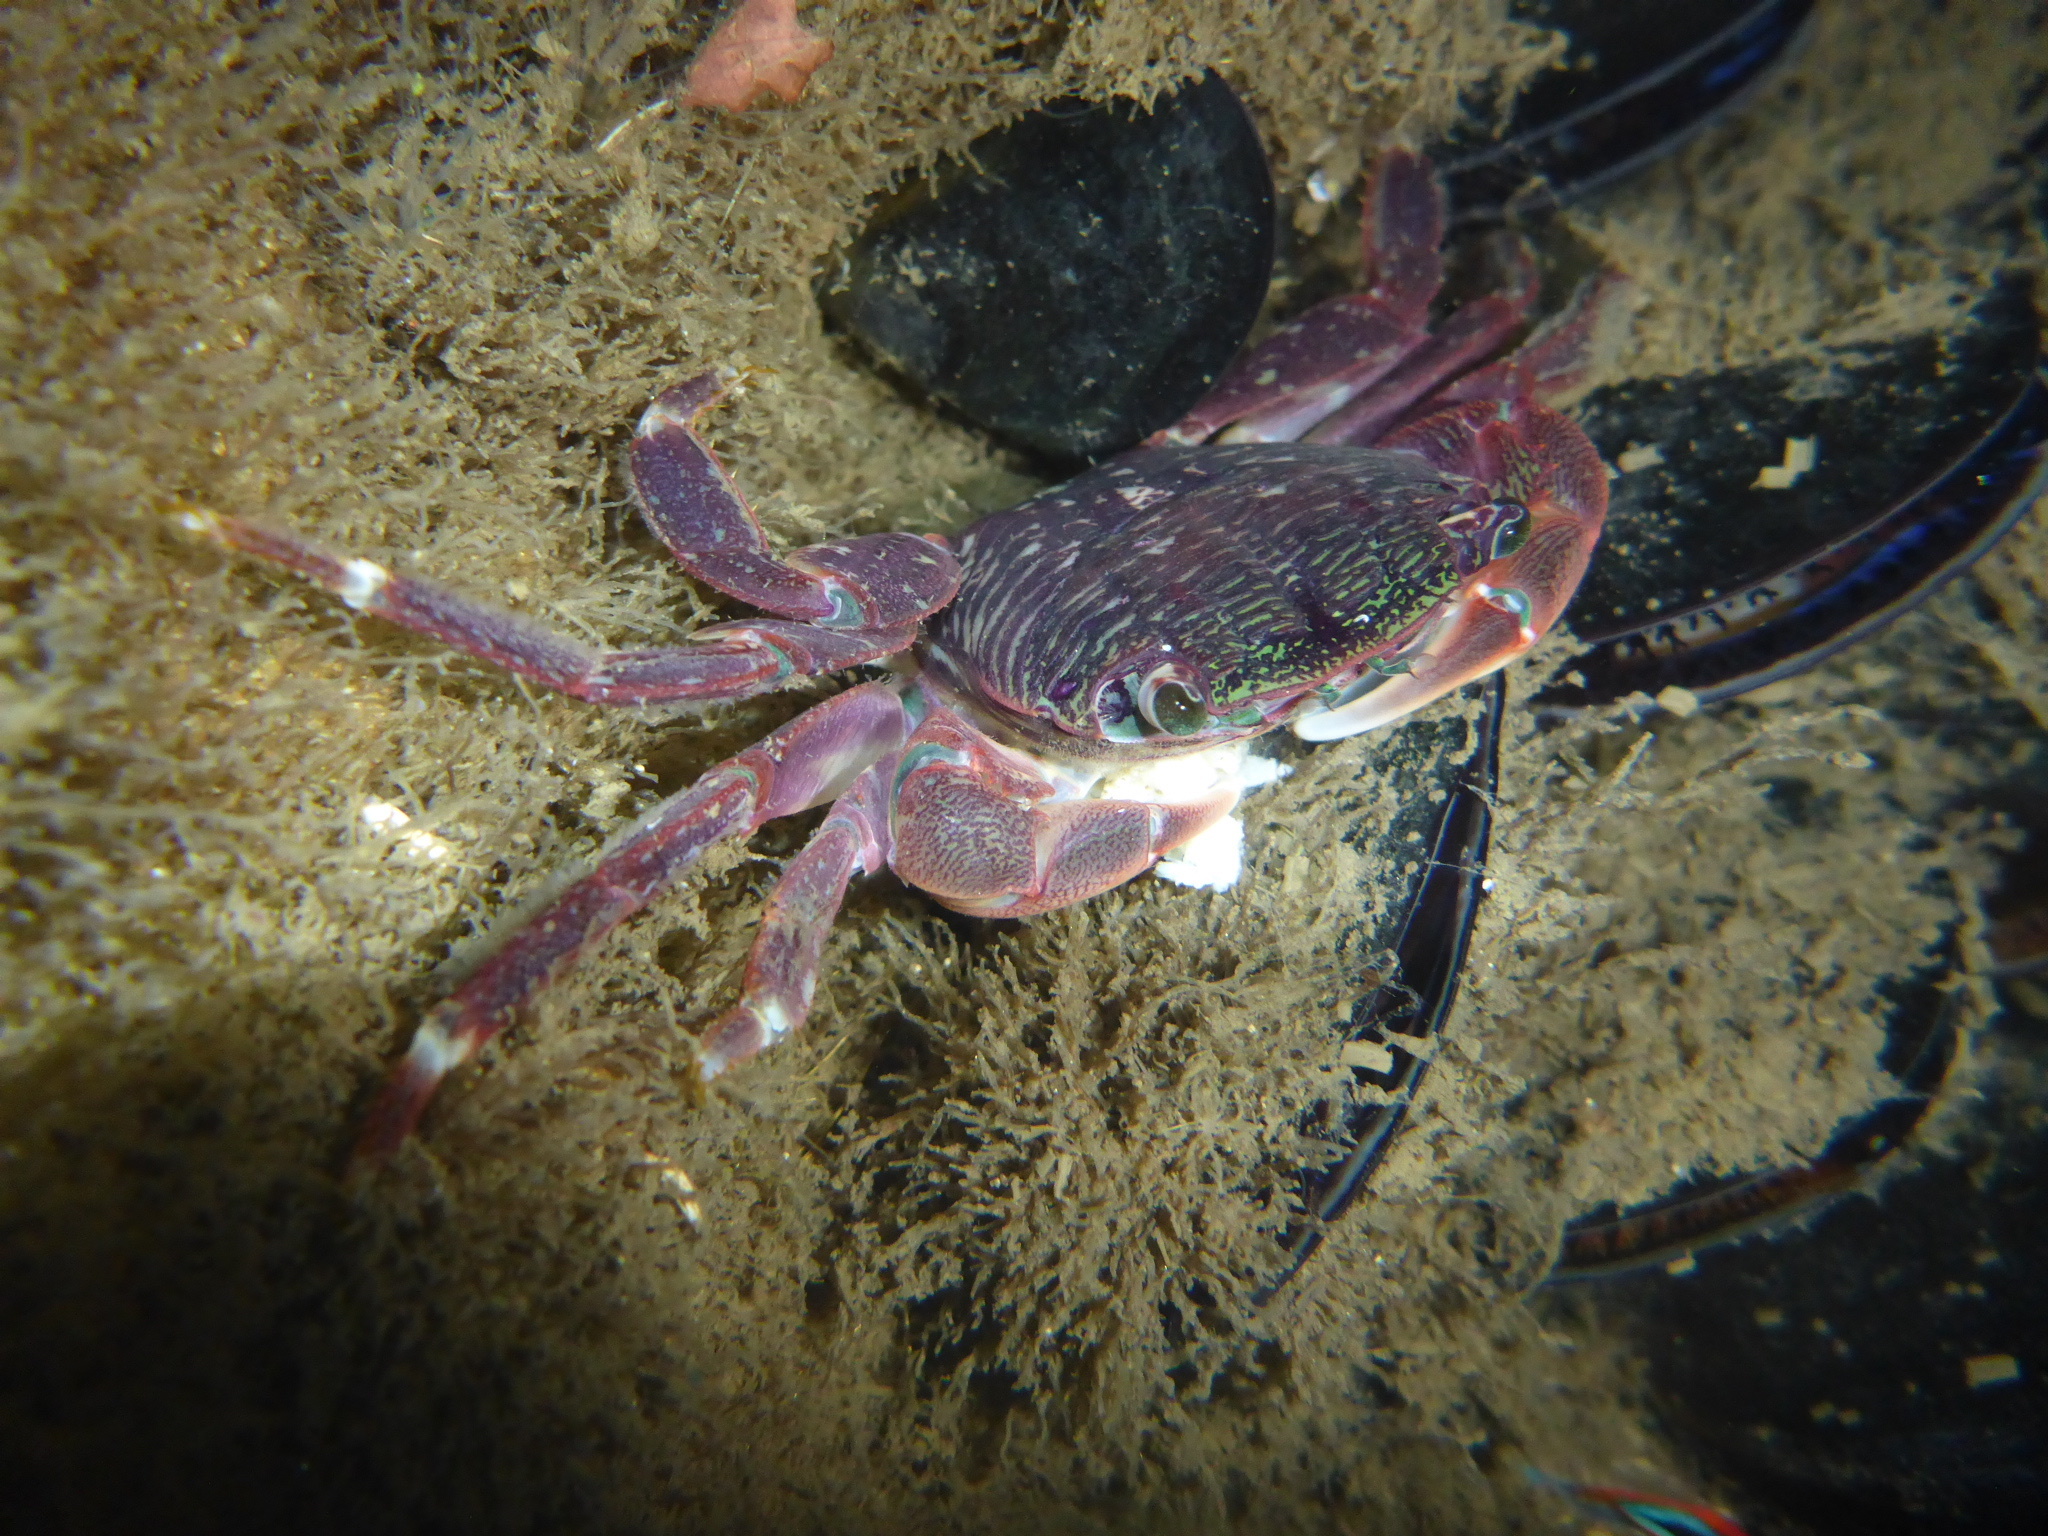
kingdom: Animalia
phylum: Arthropoda
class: Malacostraca
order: Decapoda
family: Grapsidae
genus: Pachygrapsus
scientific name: Pachygrapsus crassipes
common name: Striped shore crab
